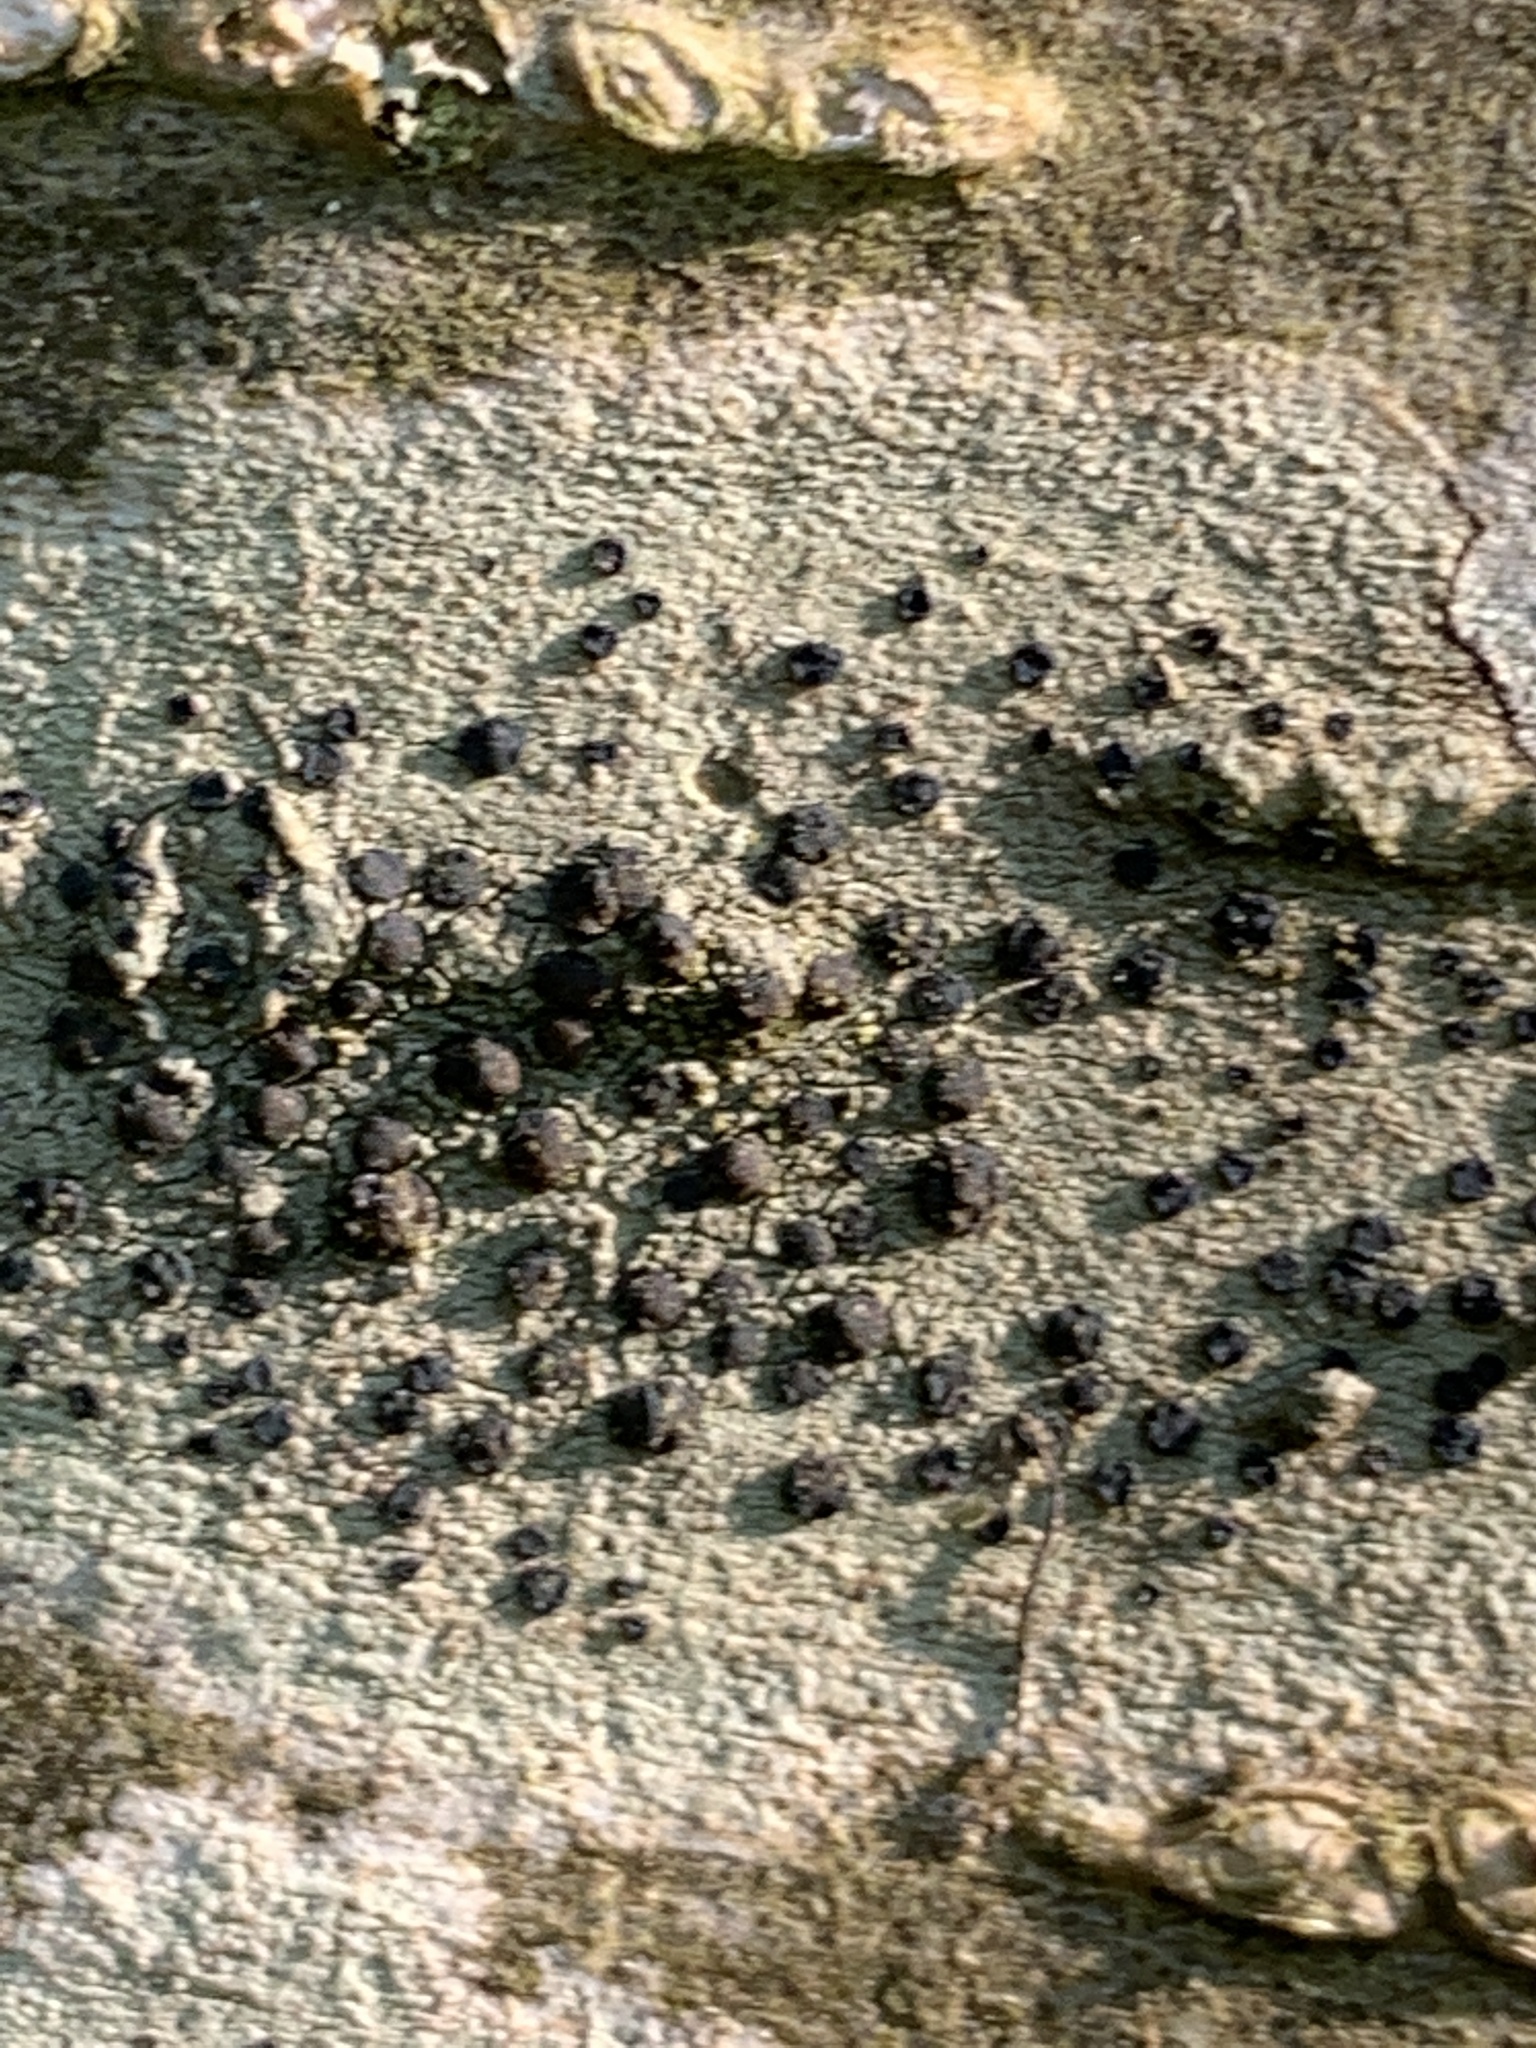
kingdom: Fungi
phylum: Ascomycota
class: Lecanoromycetes
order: Lecanorales
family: Lecanoraceae
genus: Lecidella
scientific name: Lecidella elaeochroma
